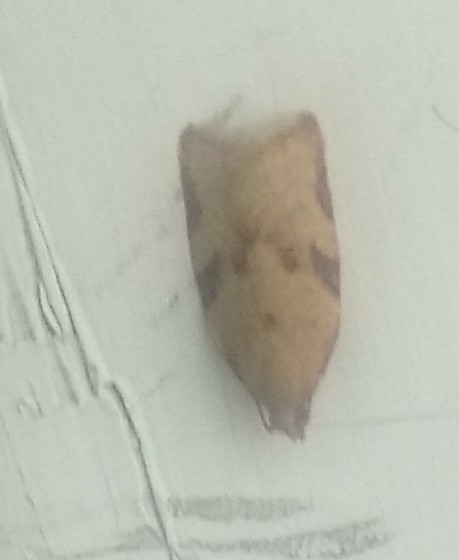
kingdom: Animalia
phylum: Arthropoda
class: Insecta
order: Lepidoptera
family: Tortricidae
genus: Clepsis
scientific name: Clepsis siciliana
